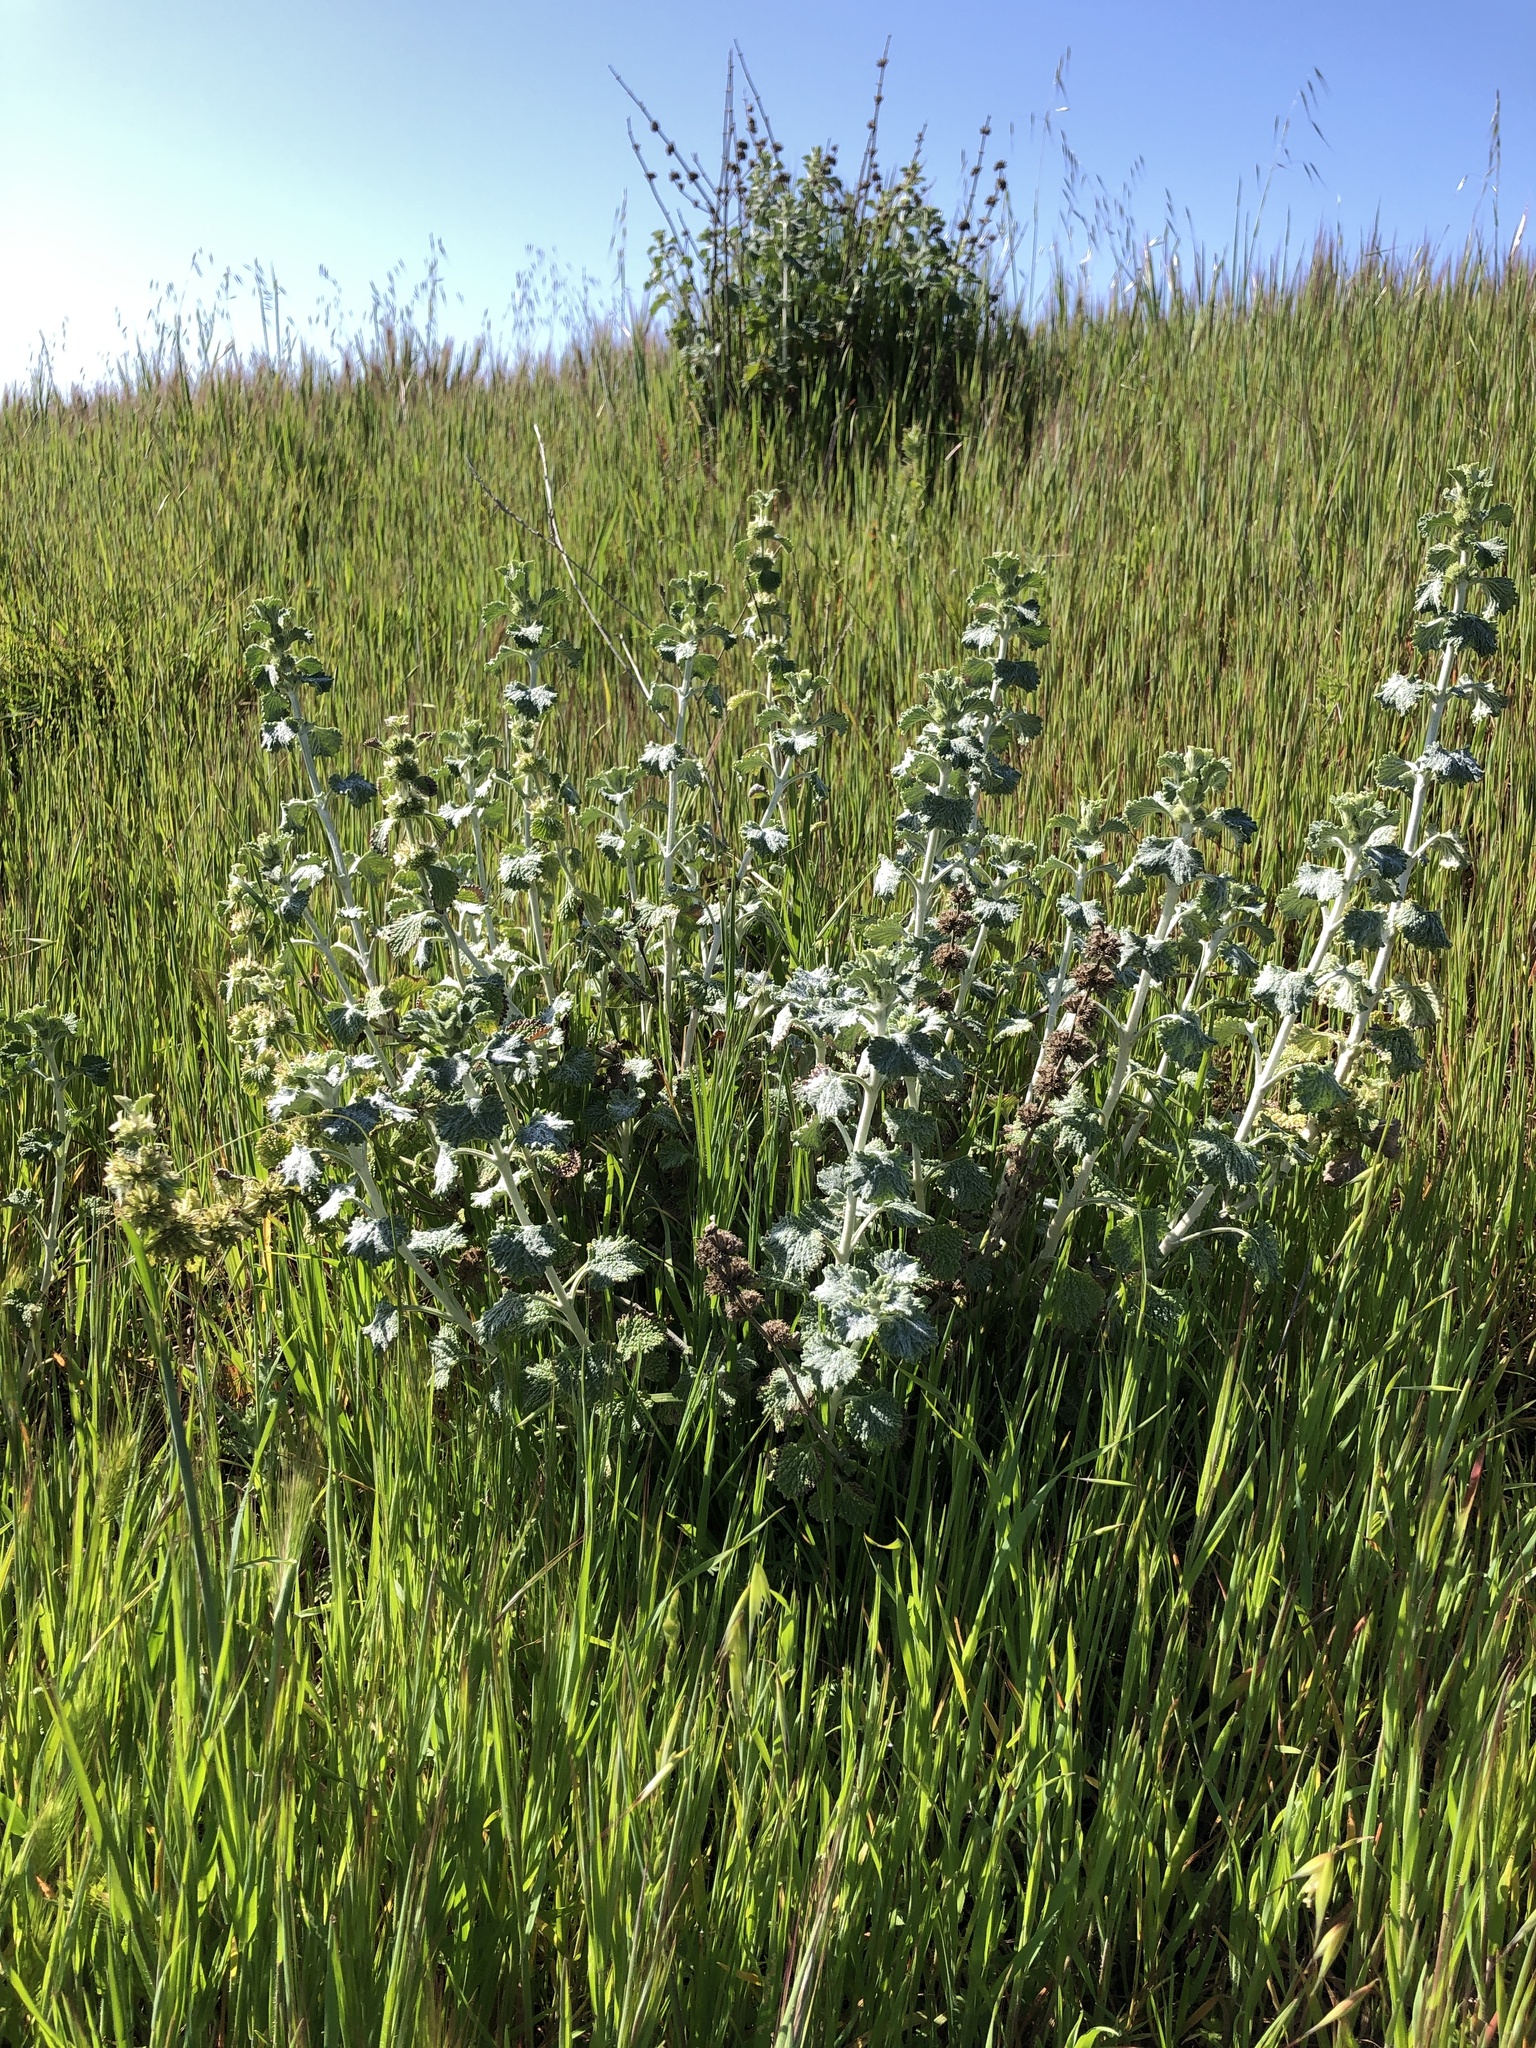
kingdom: Plantae
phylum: Tracheophyta
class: Magnoliopsida
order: Lamiales
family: Lamiaceae
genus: Marrubium
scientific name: Marrubium vulgare
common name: Horehound
